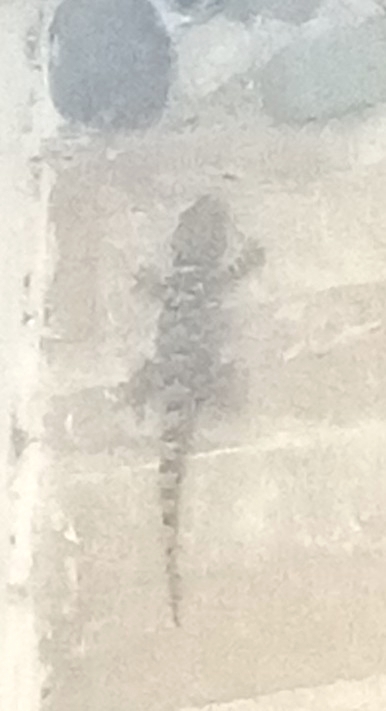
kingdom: Animalia
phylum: Chordata
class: Squamata
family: Phyllodactylidae
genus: Tarentola
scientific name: Tarentola mauritanica
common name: Moorish gecko
